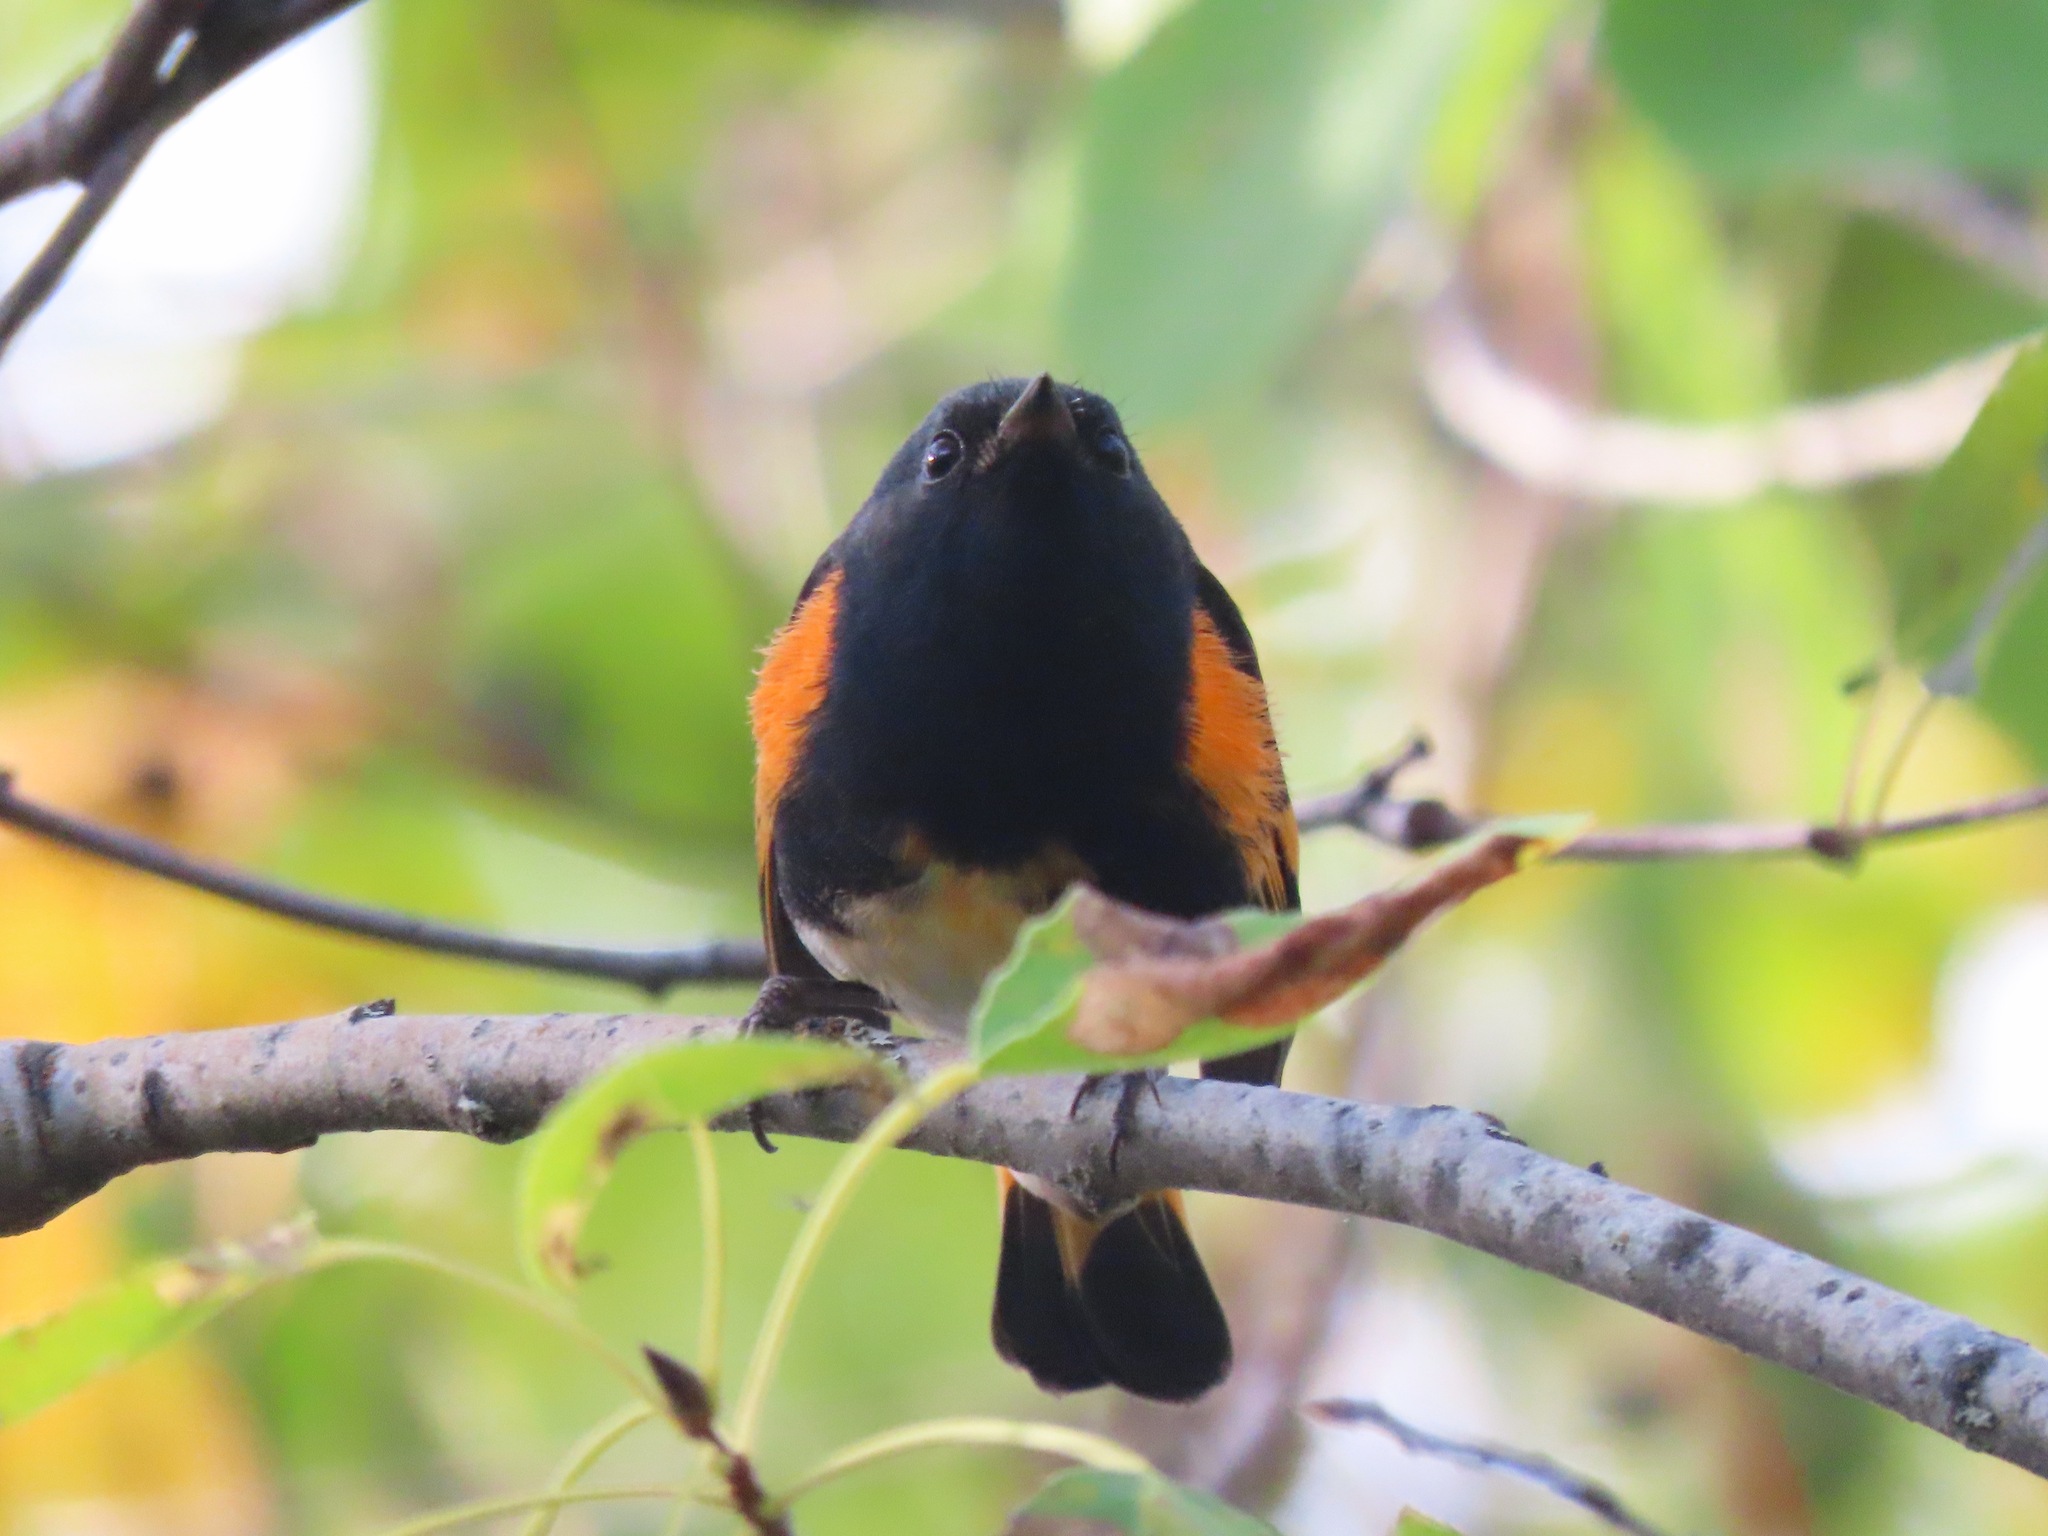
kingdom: Animalia
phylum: Chordata
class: Aves
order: Passeriformes
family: Parulidae
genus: Setophaga
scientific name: Setophaga ruticilla
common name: American redstart
